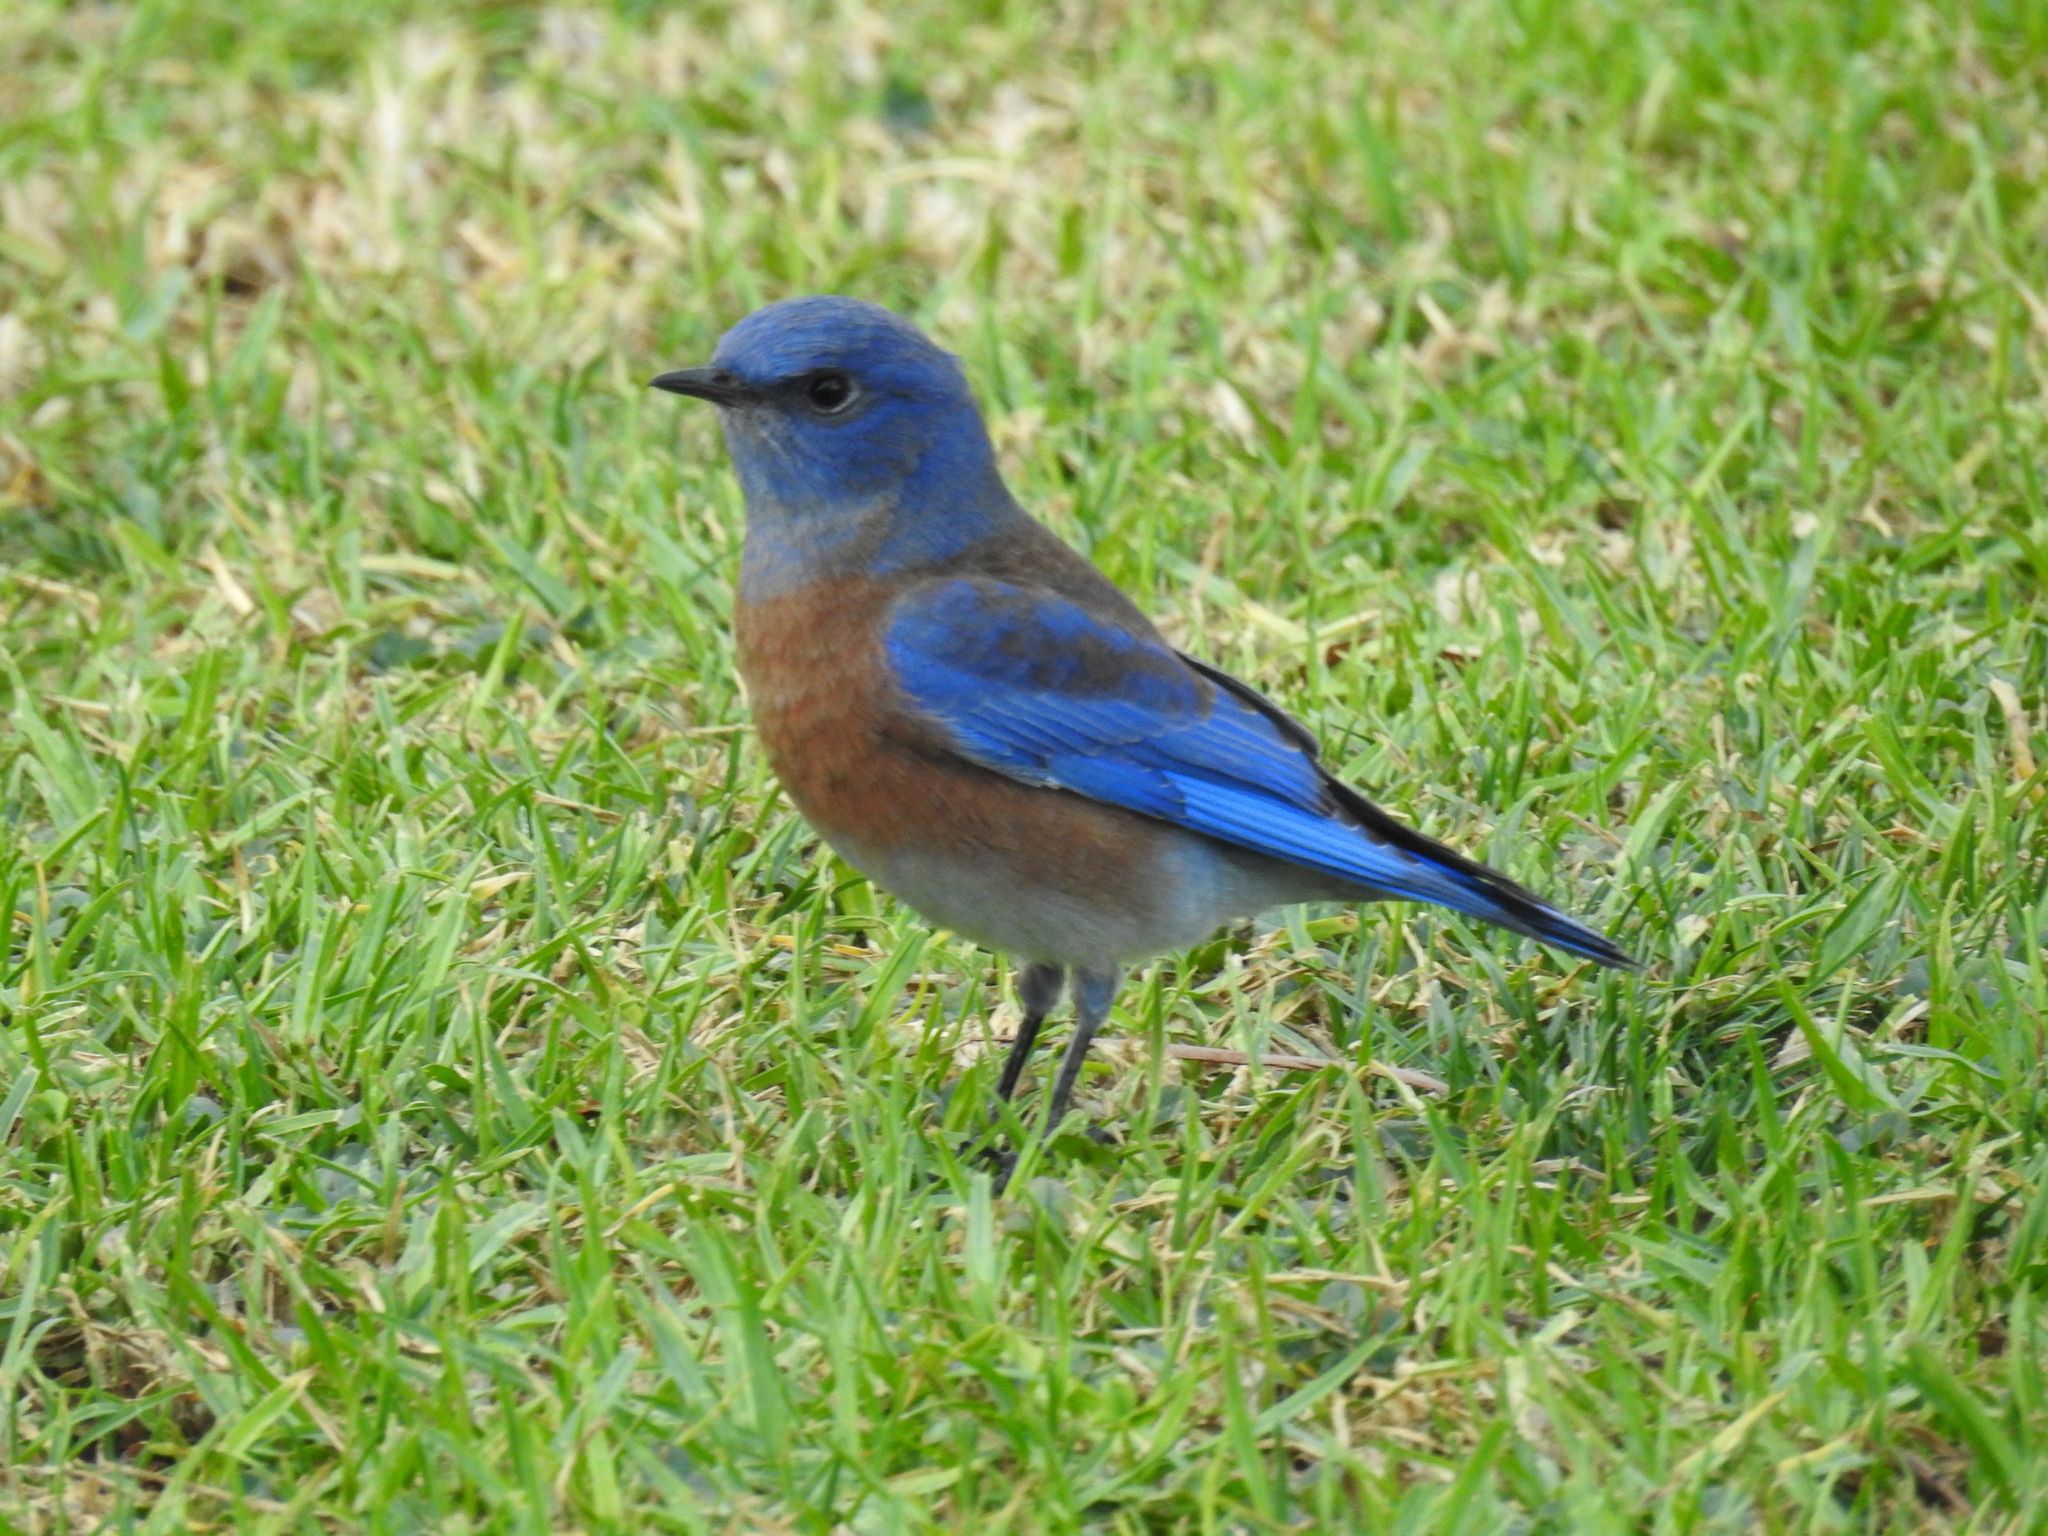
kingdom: Animalia
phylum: Chordata
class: Aves
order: Passeriformes
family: Turdidae
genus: Sialia
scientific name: Sialia mexicana
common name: Western bluebird
